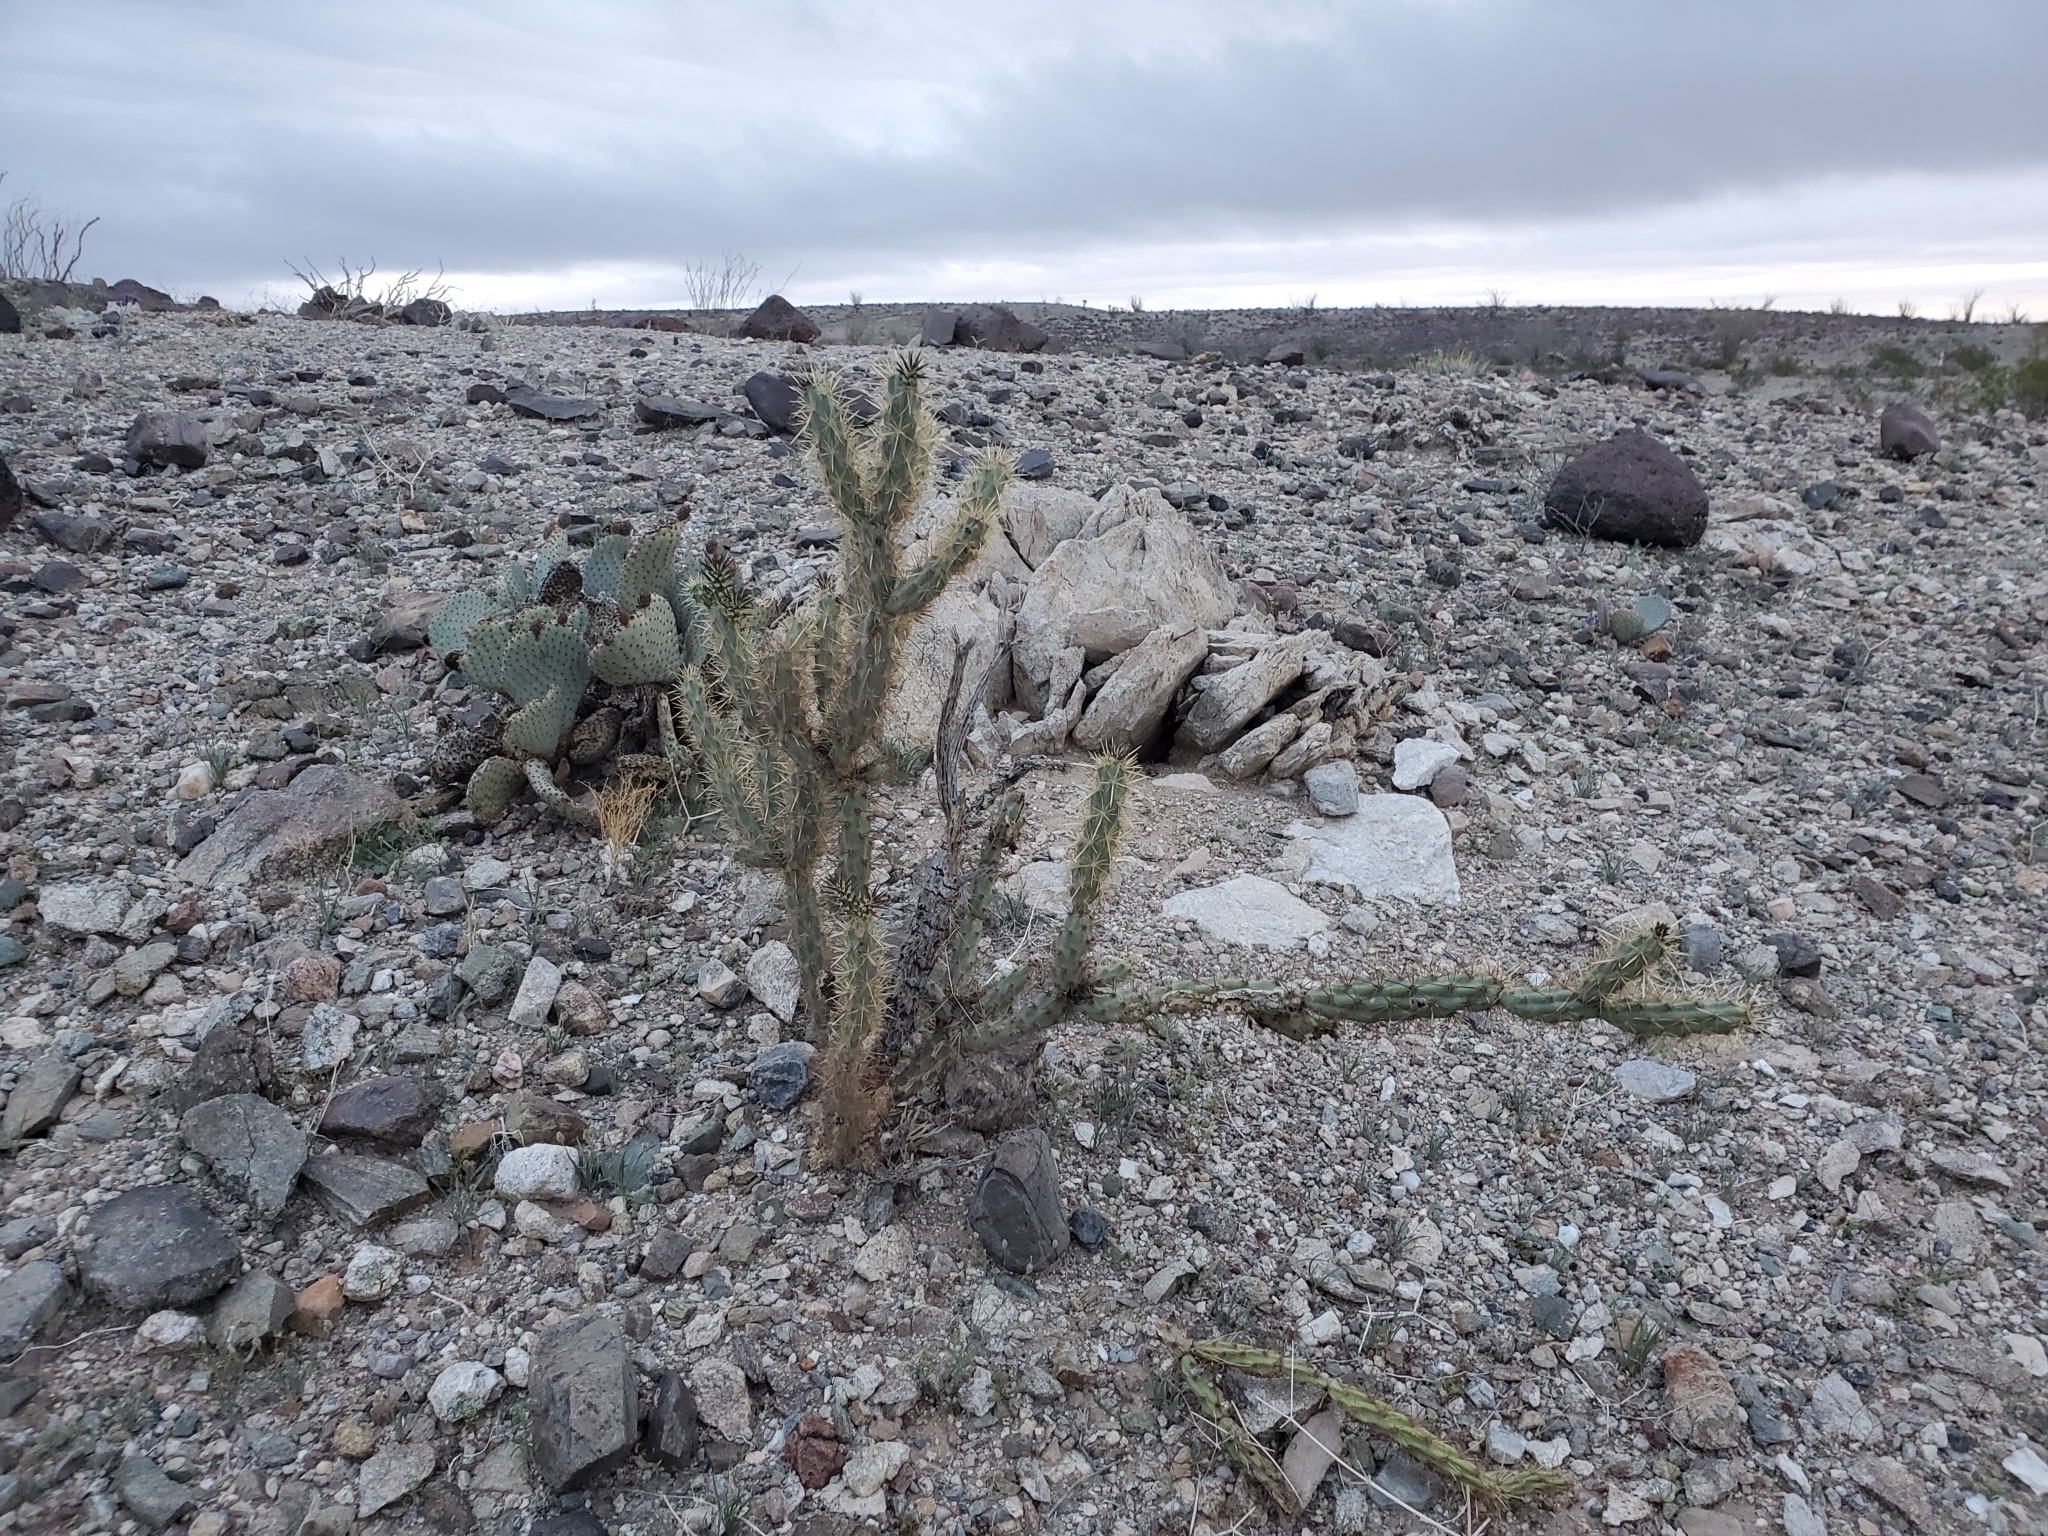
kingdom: Plantae
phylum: Tracheophyta
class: Magnoliopsida
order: Caryophyllales
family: Cactaceae
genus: Cylindropuntia
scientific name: Cylindropuntia acanthocarpa
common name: Buckhorn cholla
